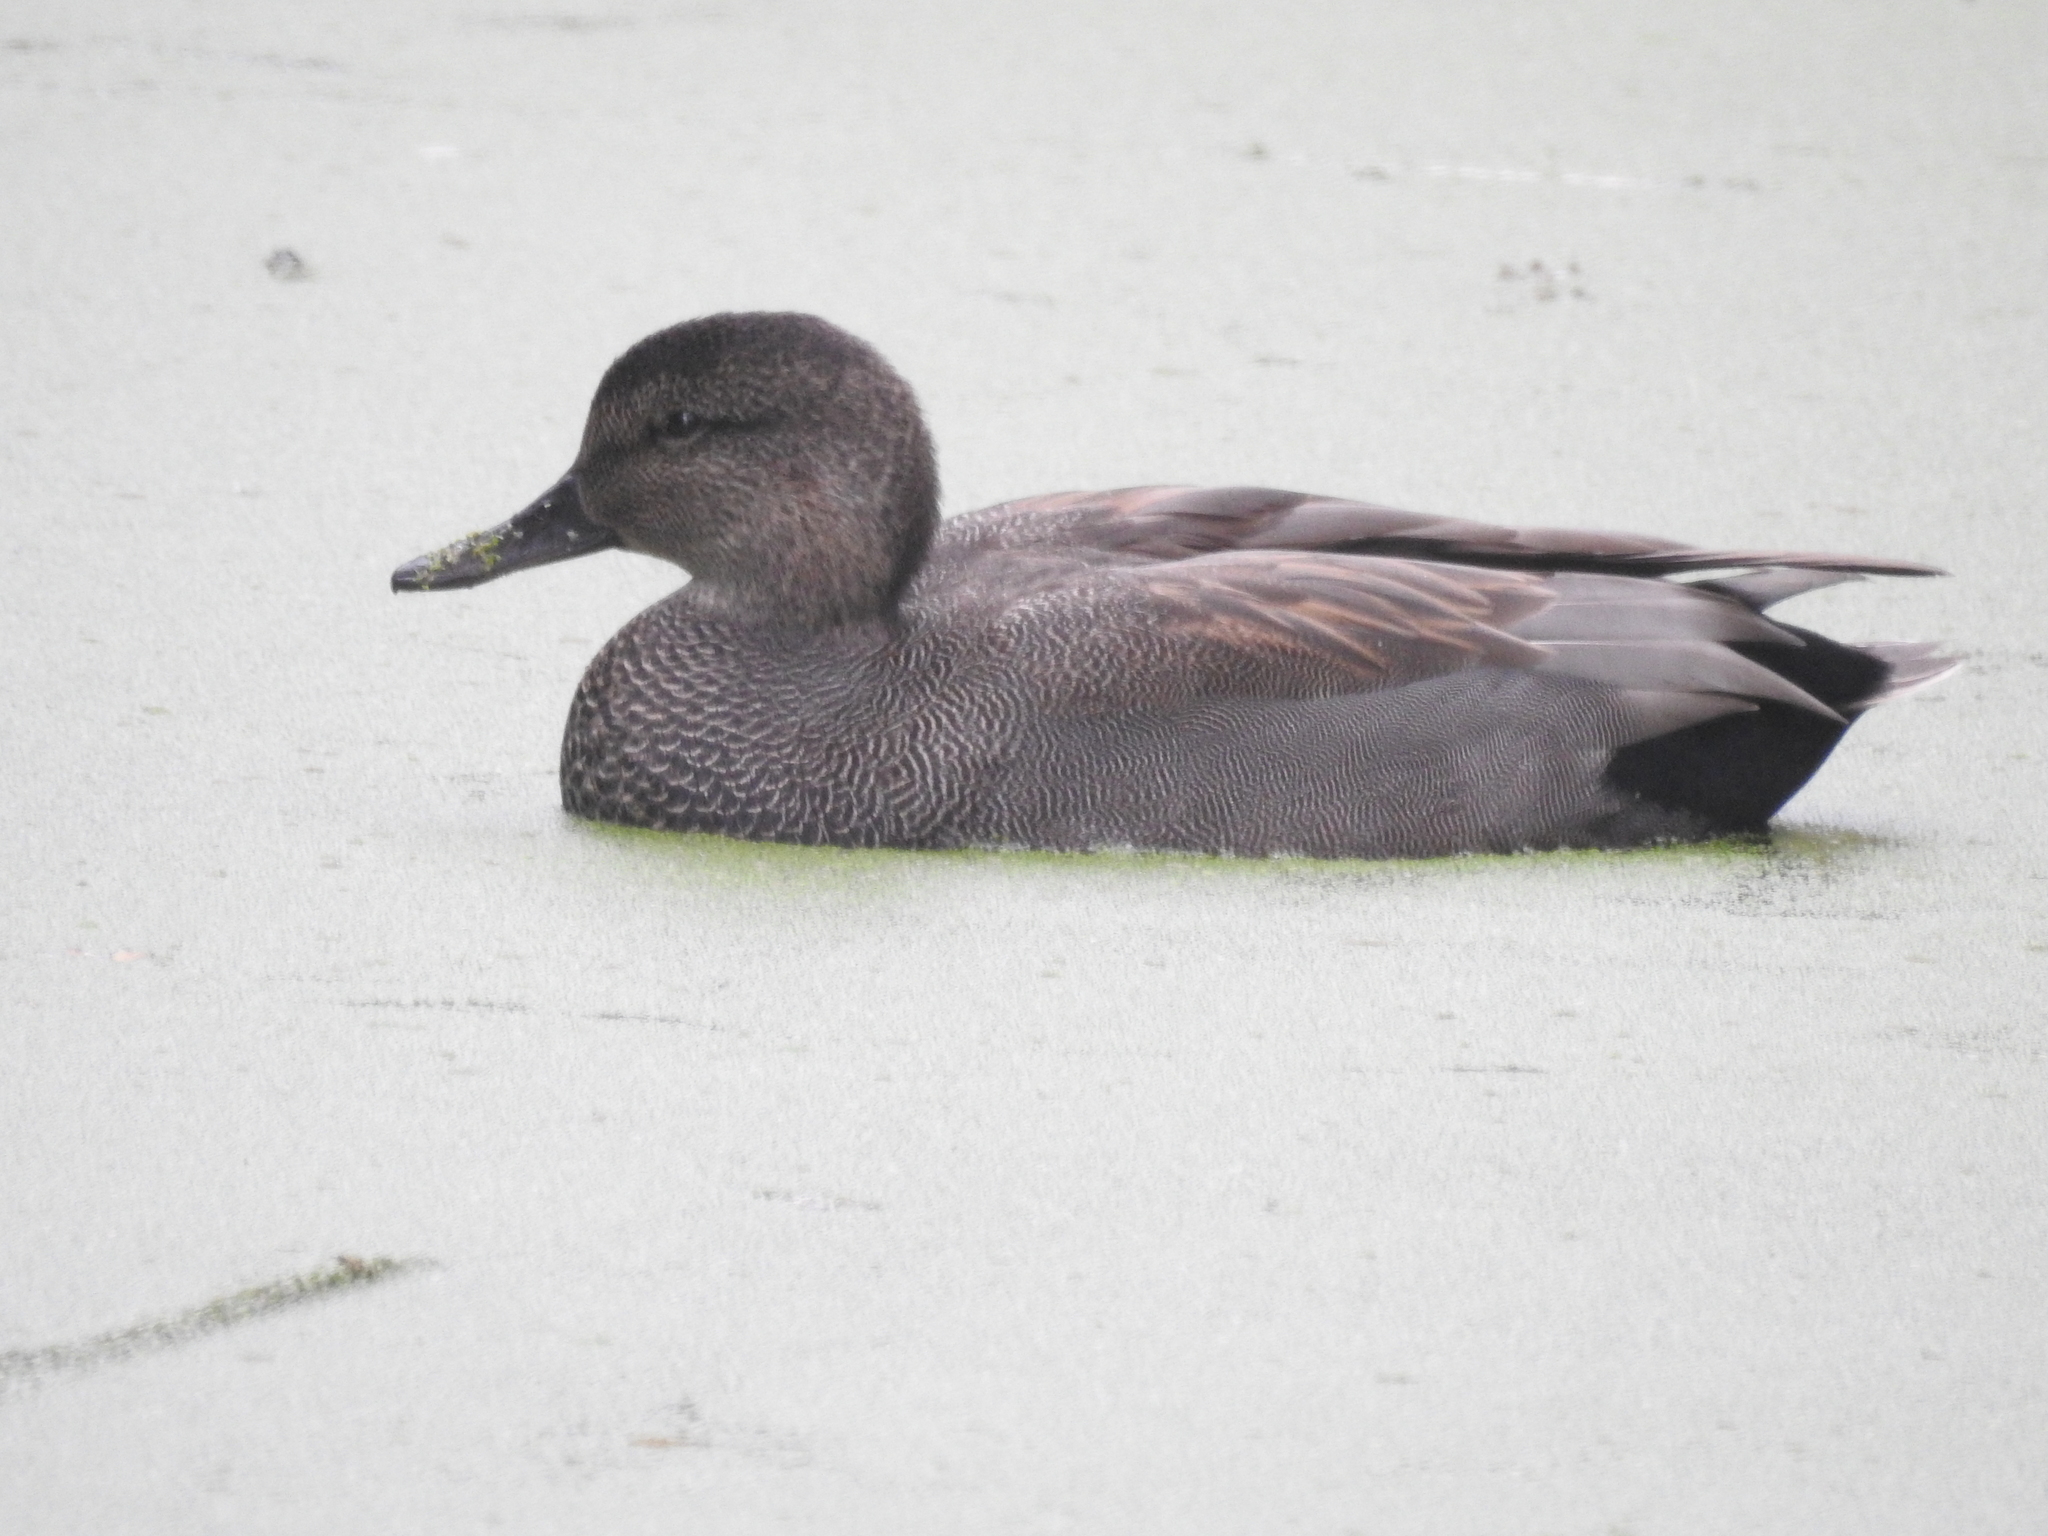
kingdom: Animalia
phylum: Chordata
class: Aves
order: Anseriformes
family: Anatidae
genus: Mareca
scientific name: Mareca strepera
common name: Gadwall
